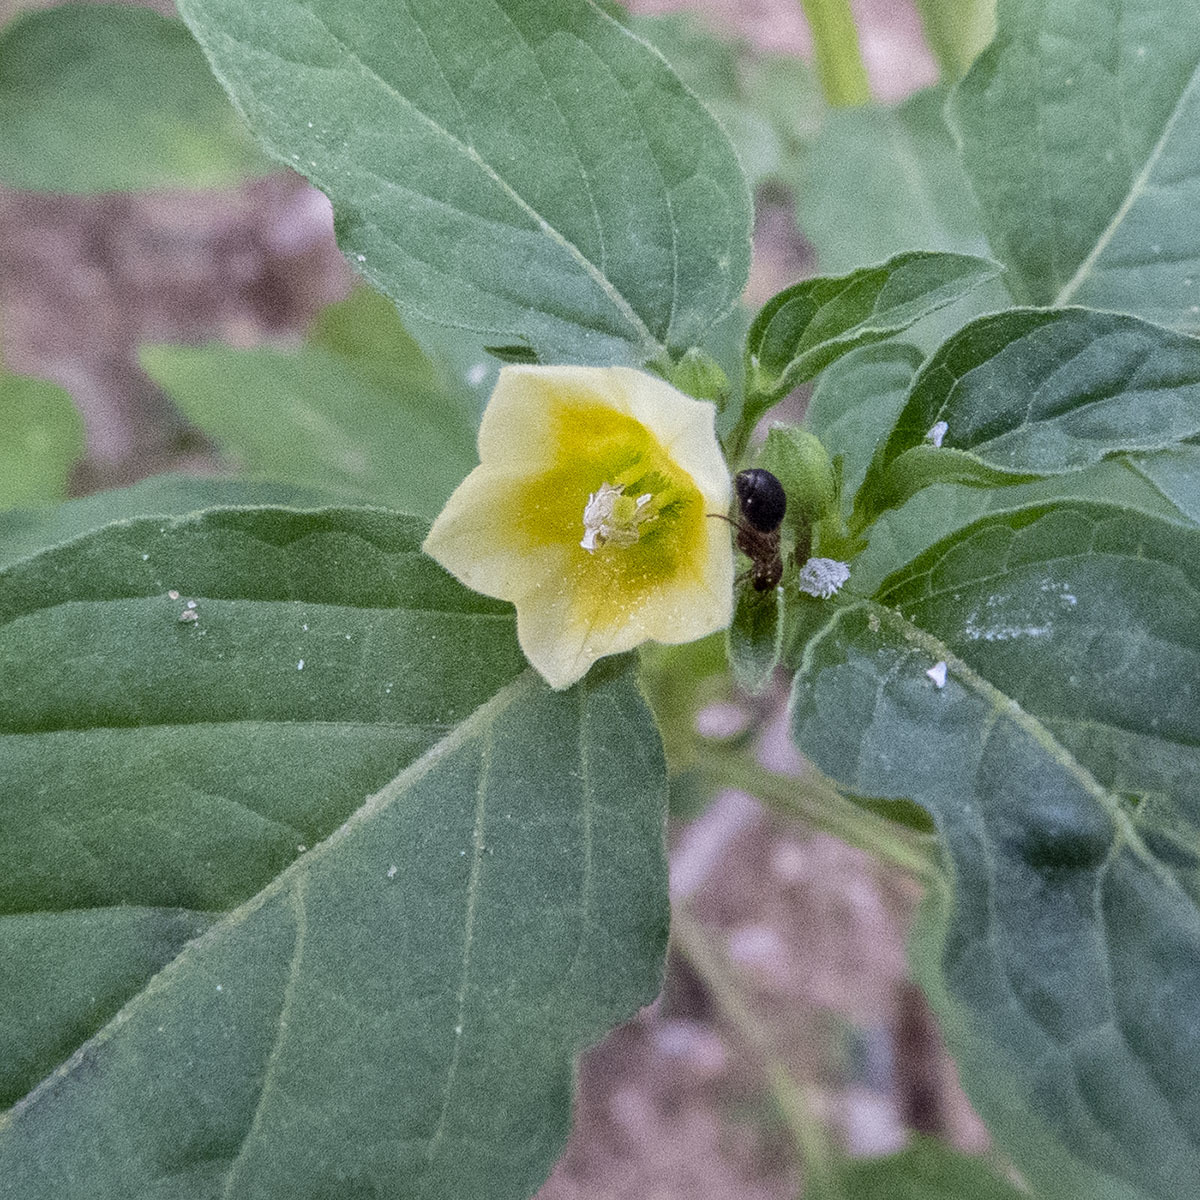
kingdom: Plantae
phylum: Tracheophyta
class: Magnoliopsida
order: Solanales
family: Solanaceae
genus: Physalis
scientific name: Physalis angulata
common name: Angular winter-cherry
